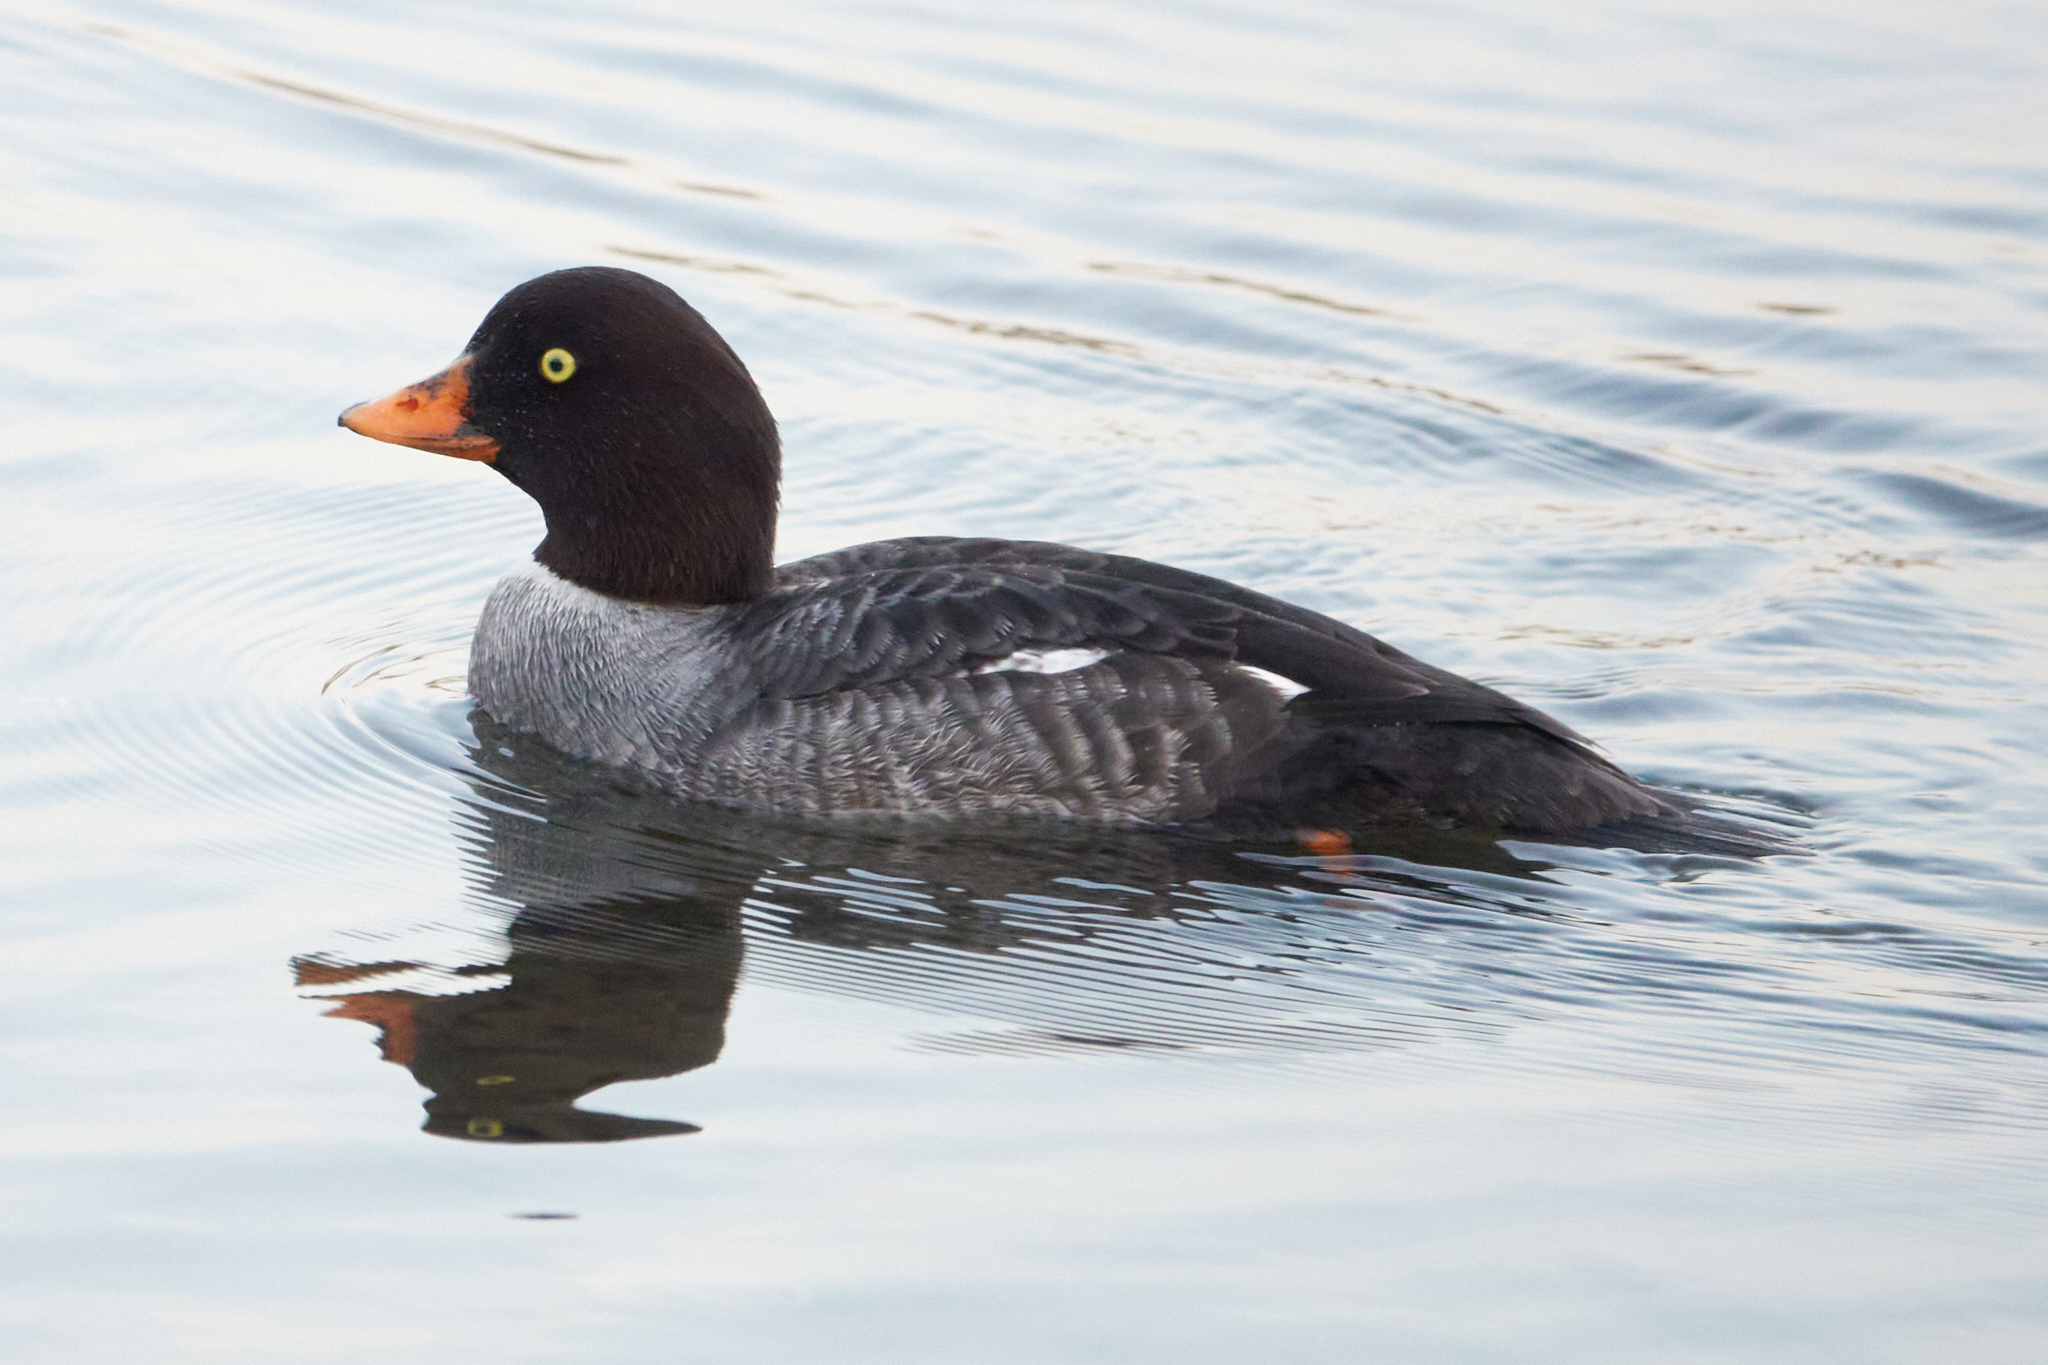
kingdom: Animalia
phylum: Chordata
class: Aves
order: Anseriformes
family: Anatidae
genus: Bucephala
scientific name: Bucephala islandica
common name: Barrow's goldeneye
